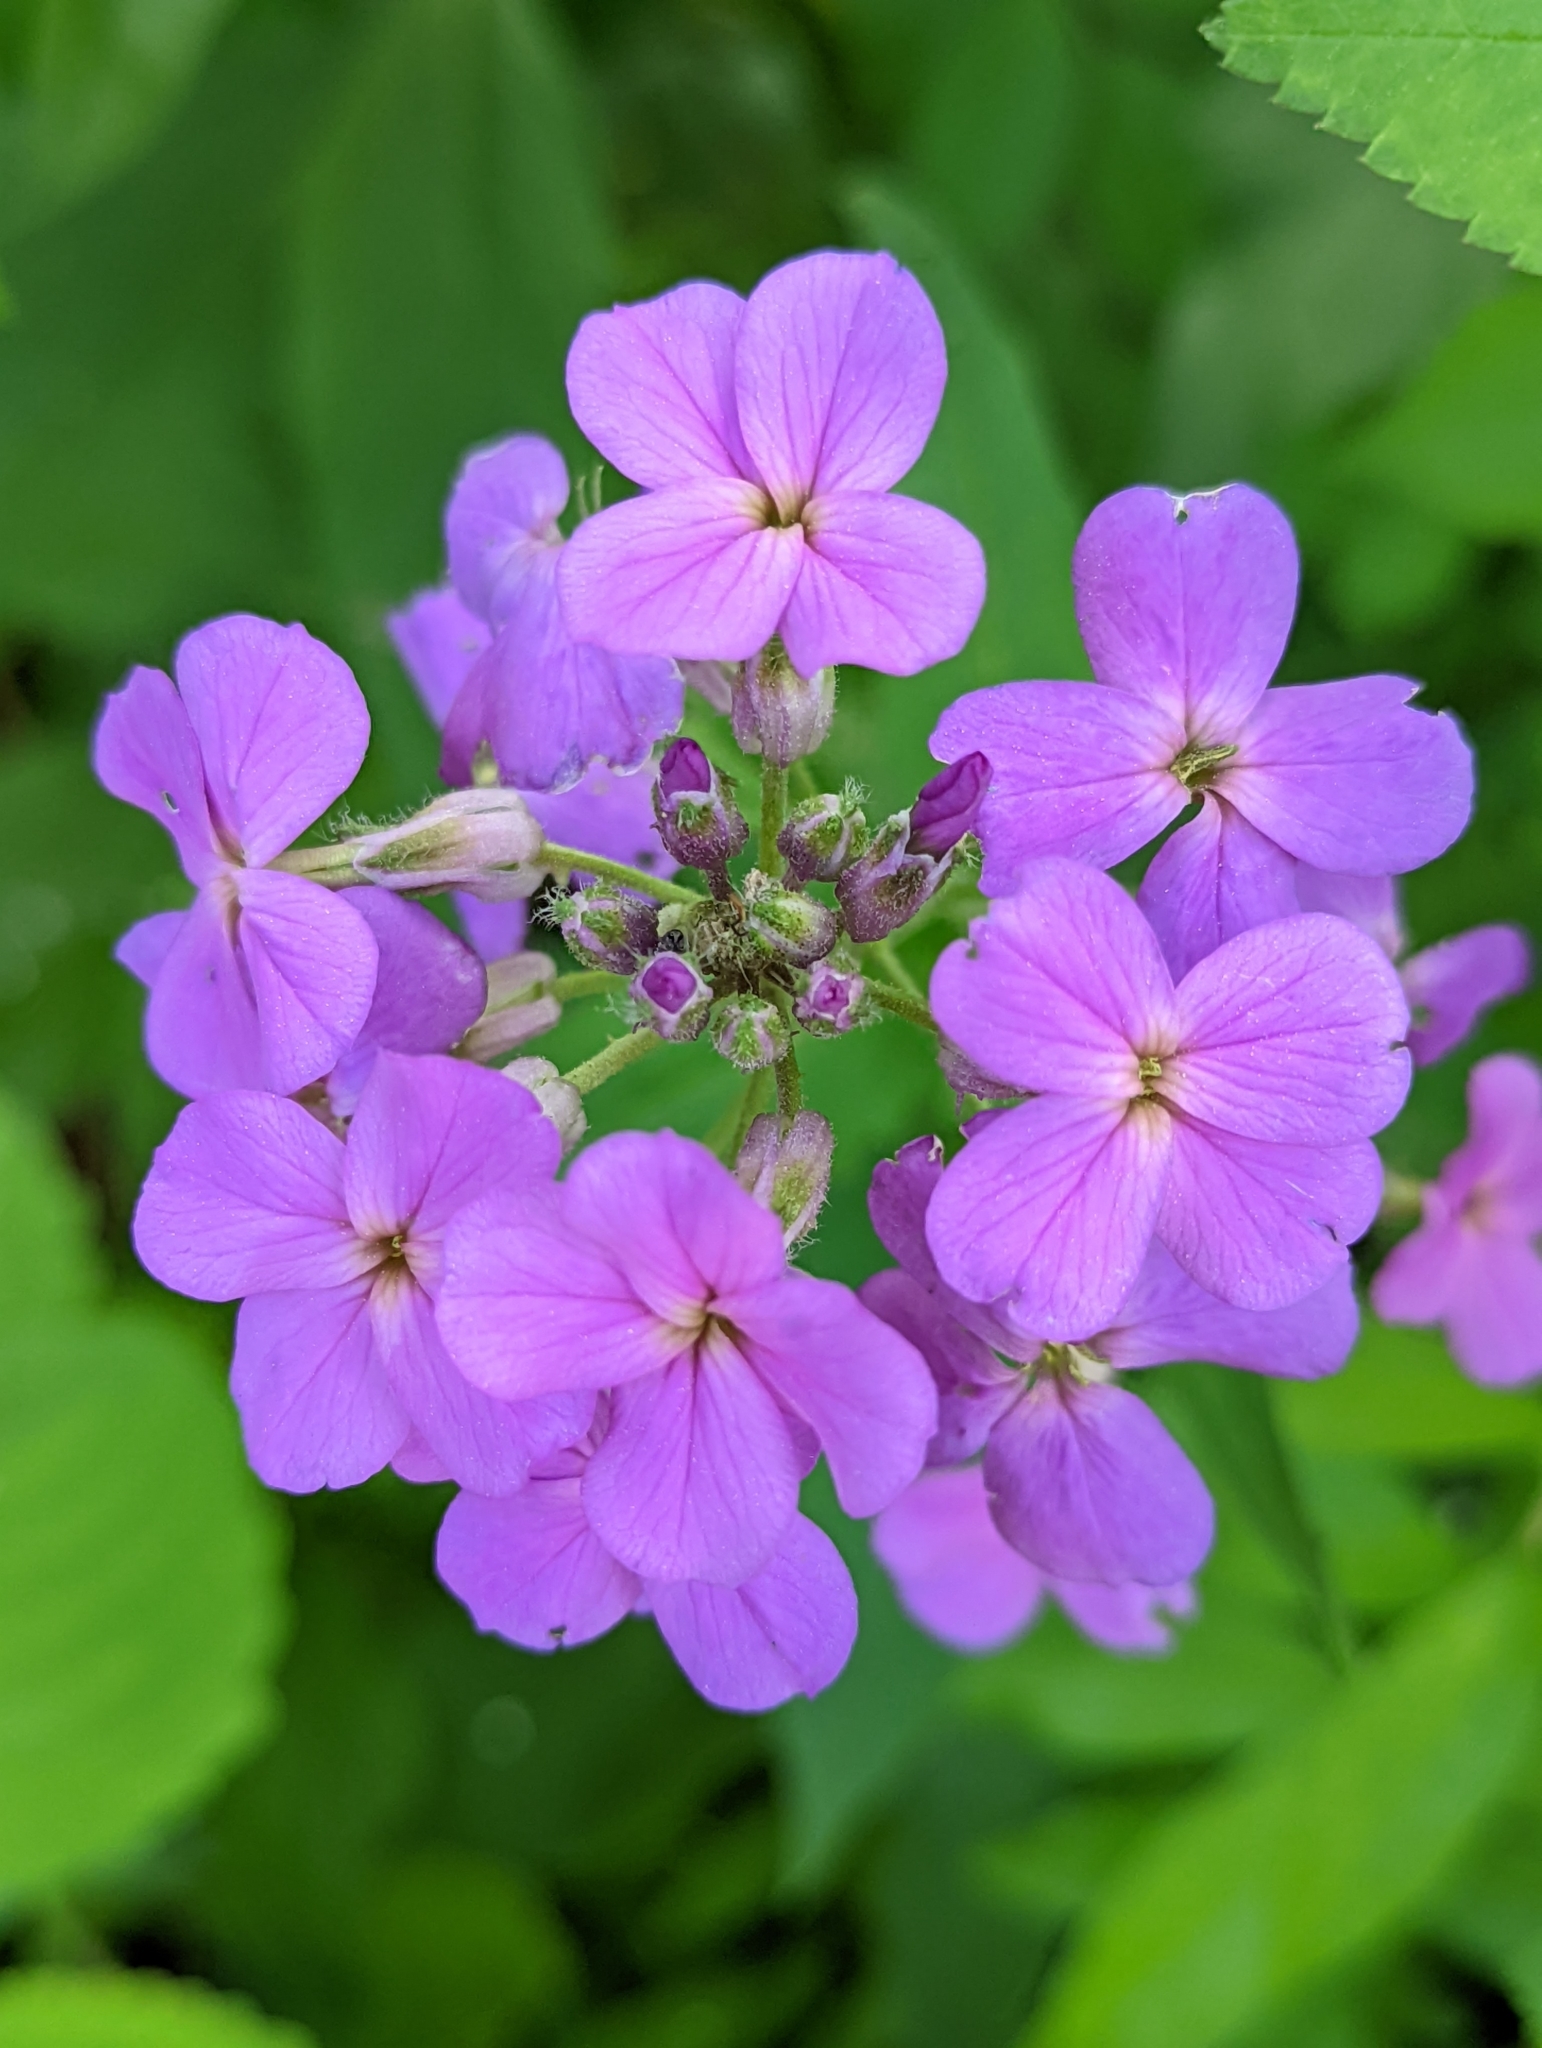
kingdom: Plantae
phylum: Tracheophyta
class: Magnoliopsida
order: Brassicales
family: Brassicaceae
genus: Hesperis
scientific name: Hesperis matronalis
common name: Dame's-violet
